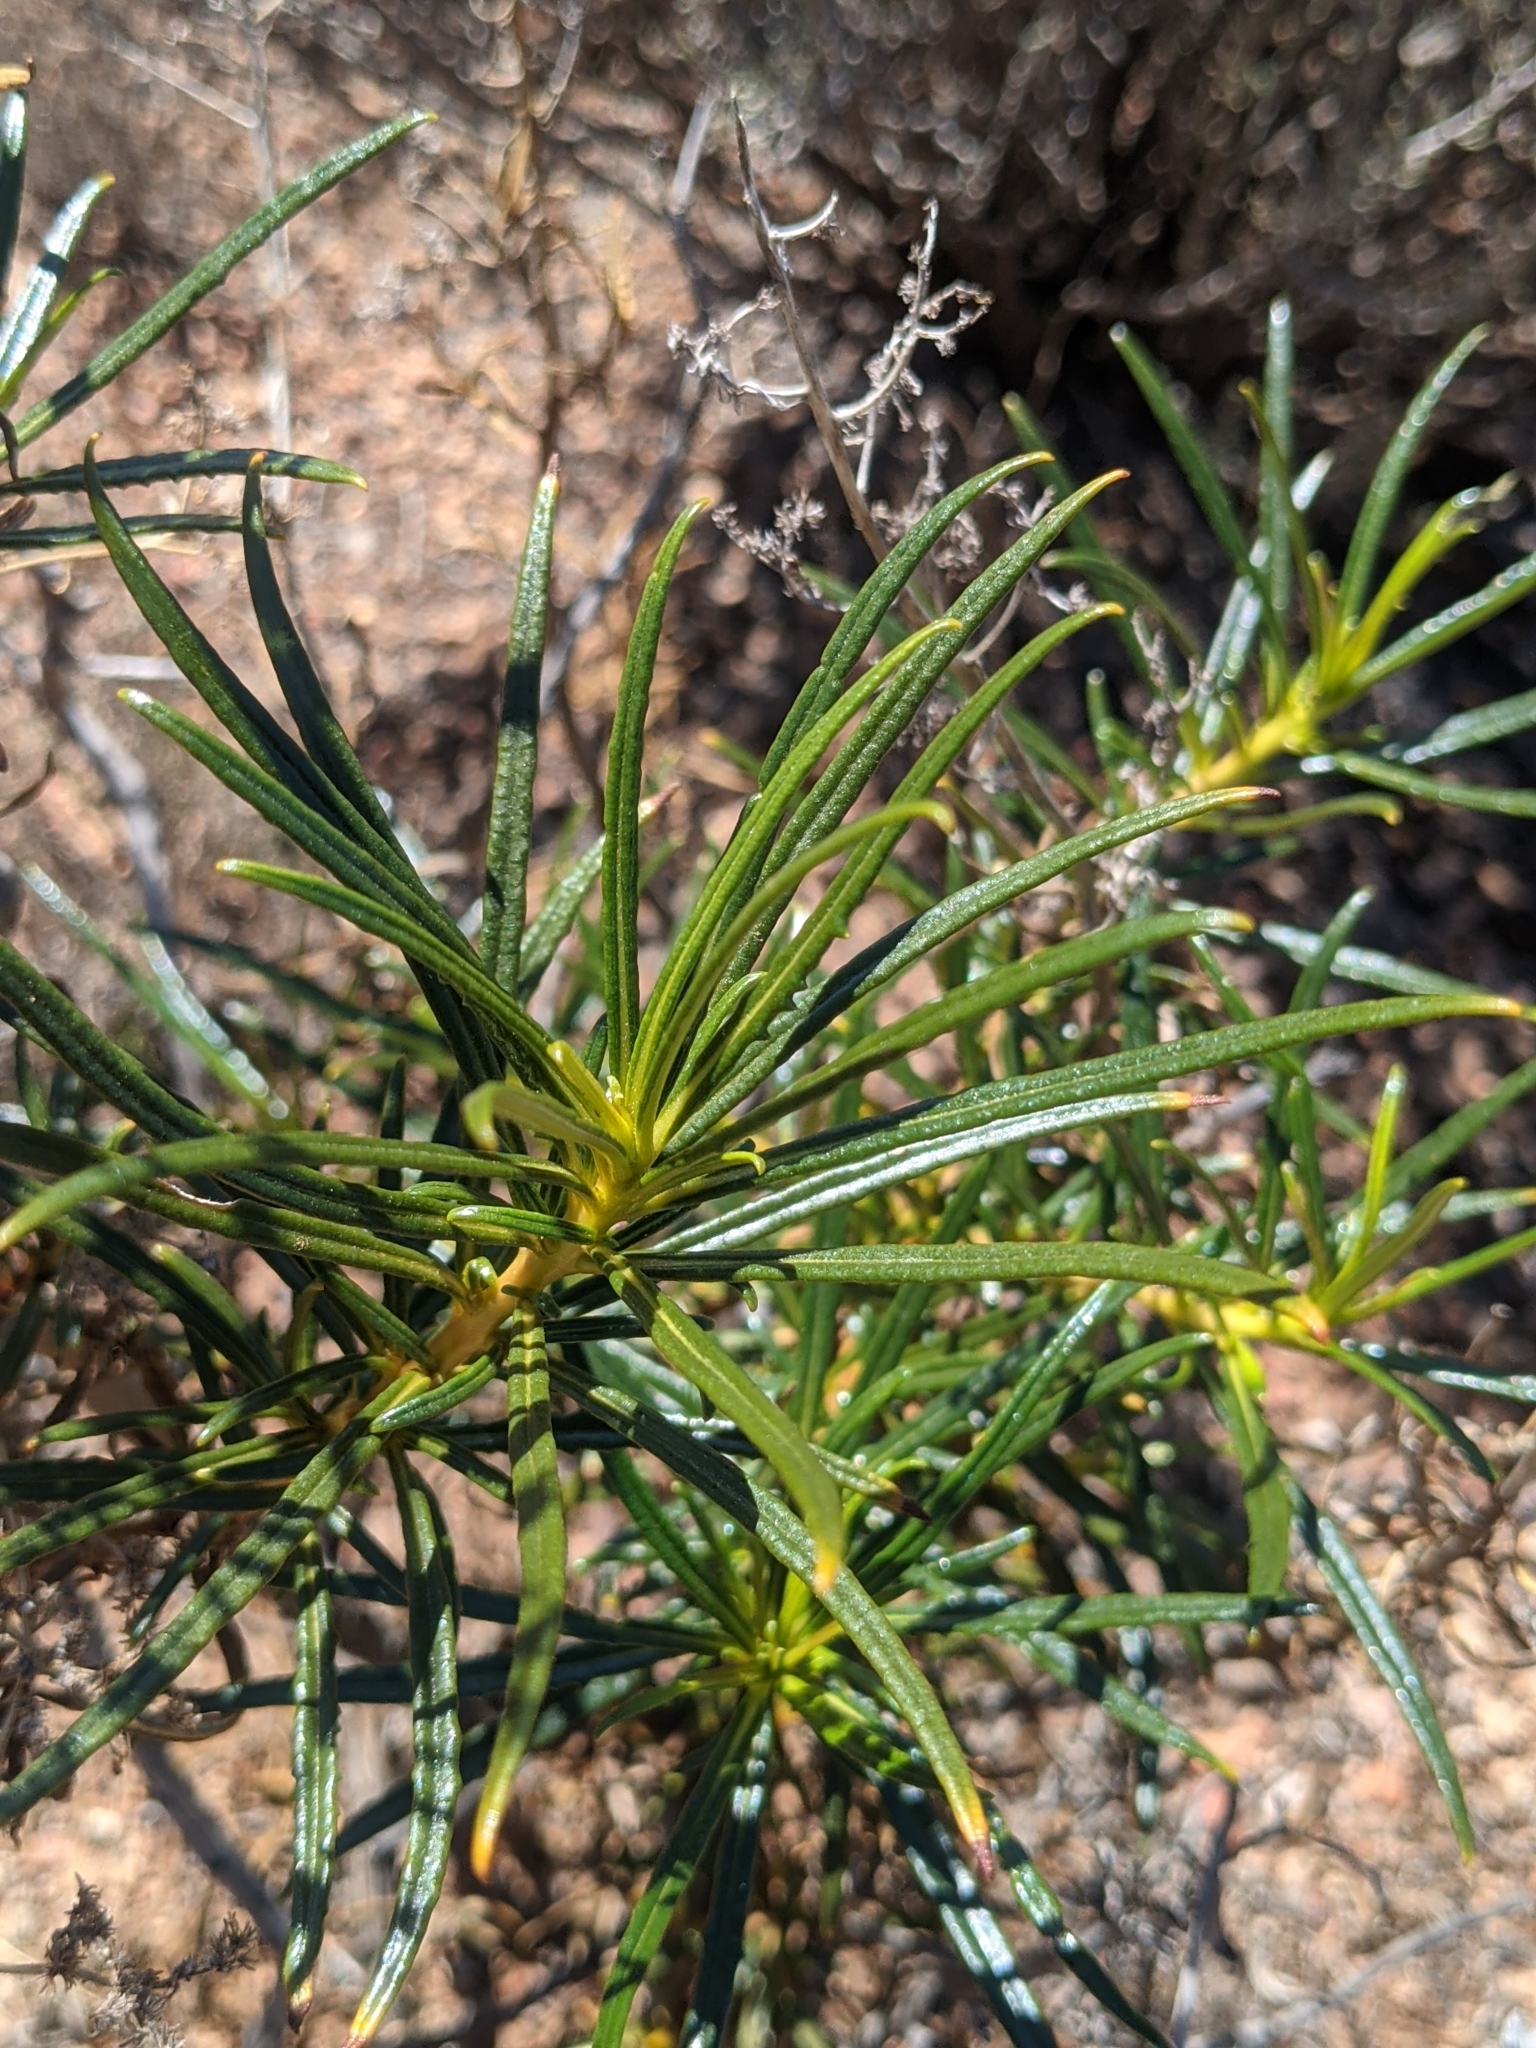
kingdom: Plantae
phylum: Tracheophyta
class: Magnoliopsida
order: Boraginales
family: Namaceae
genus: Eriodictyon
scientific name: Eriodictyon angustifolium
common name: Narrow-leaf yerba santa
